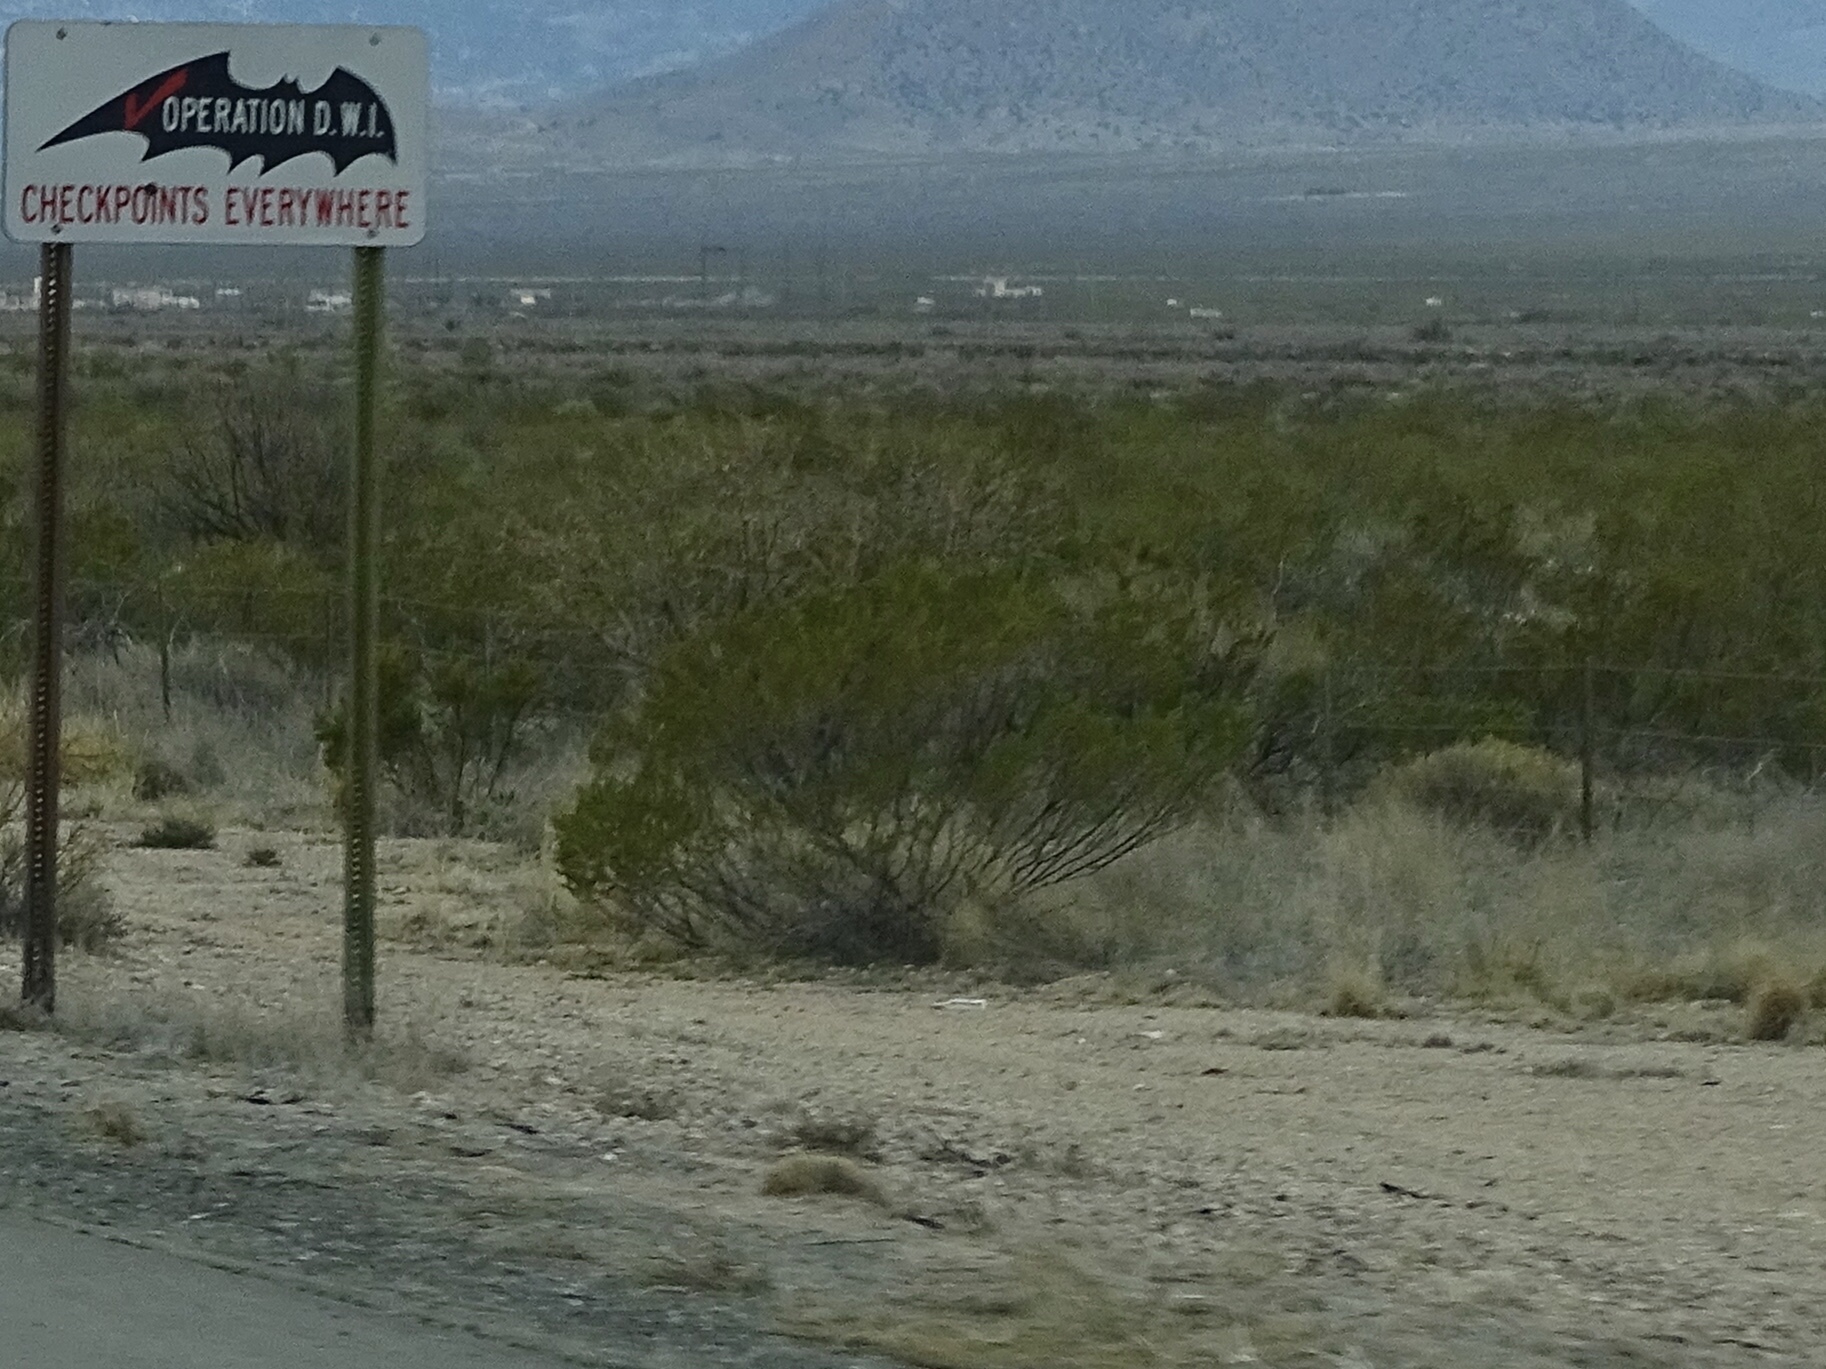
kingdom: Plantae
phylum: Tracheophyta
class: Magnoliopsida
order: Zygophyllales
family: Zygophyllaceae
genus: Larrea
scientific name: Larrea tridentata
